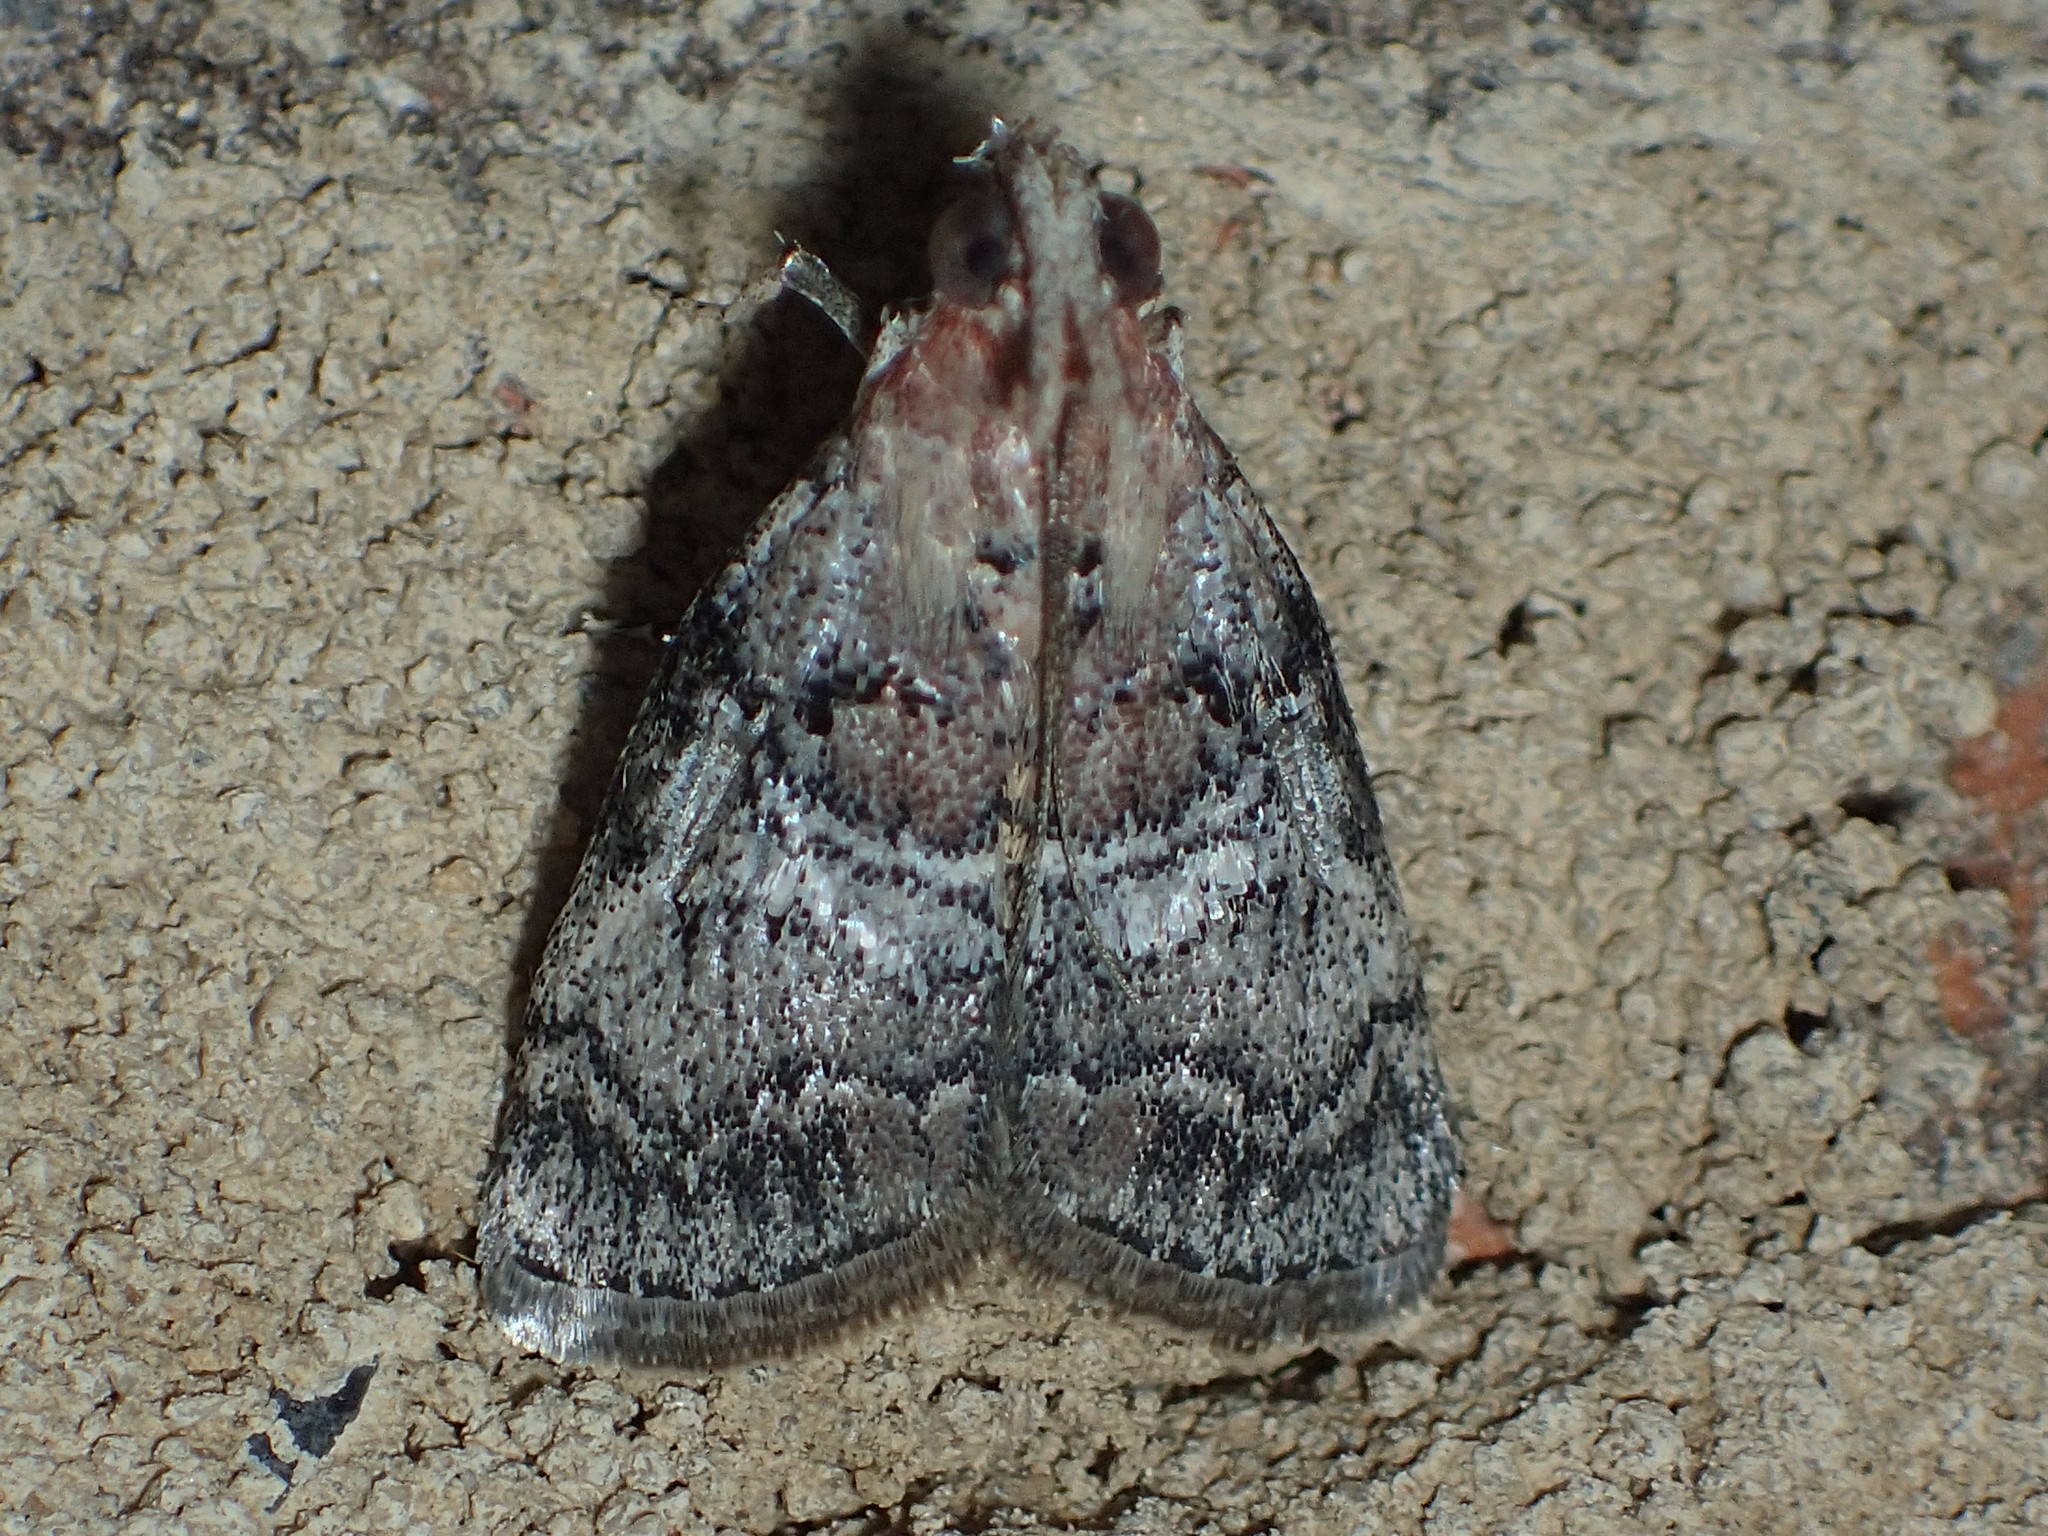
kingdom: Animalia
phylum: Arthropoda
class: Insecta
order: Lepidoptera
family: Pyralidae
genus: Pococera
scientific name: Pococera asperatella
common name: Maple webworm moth
